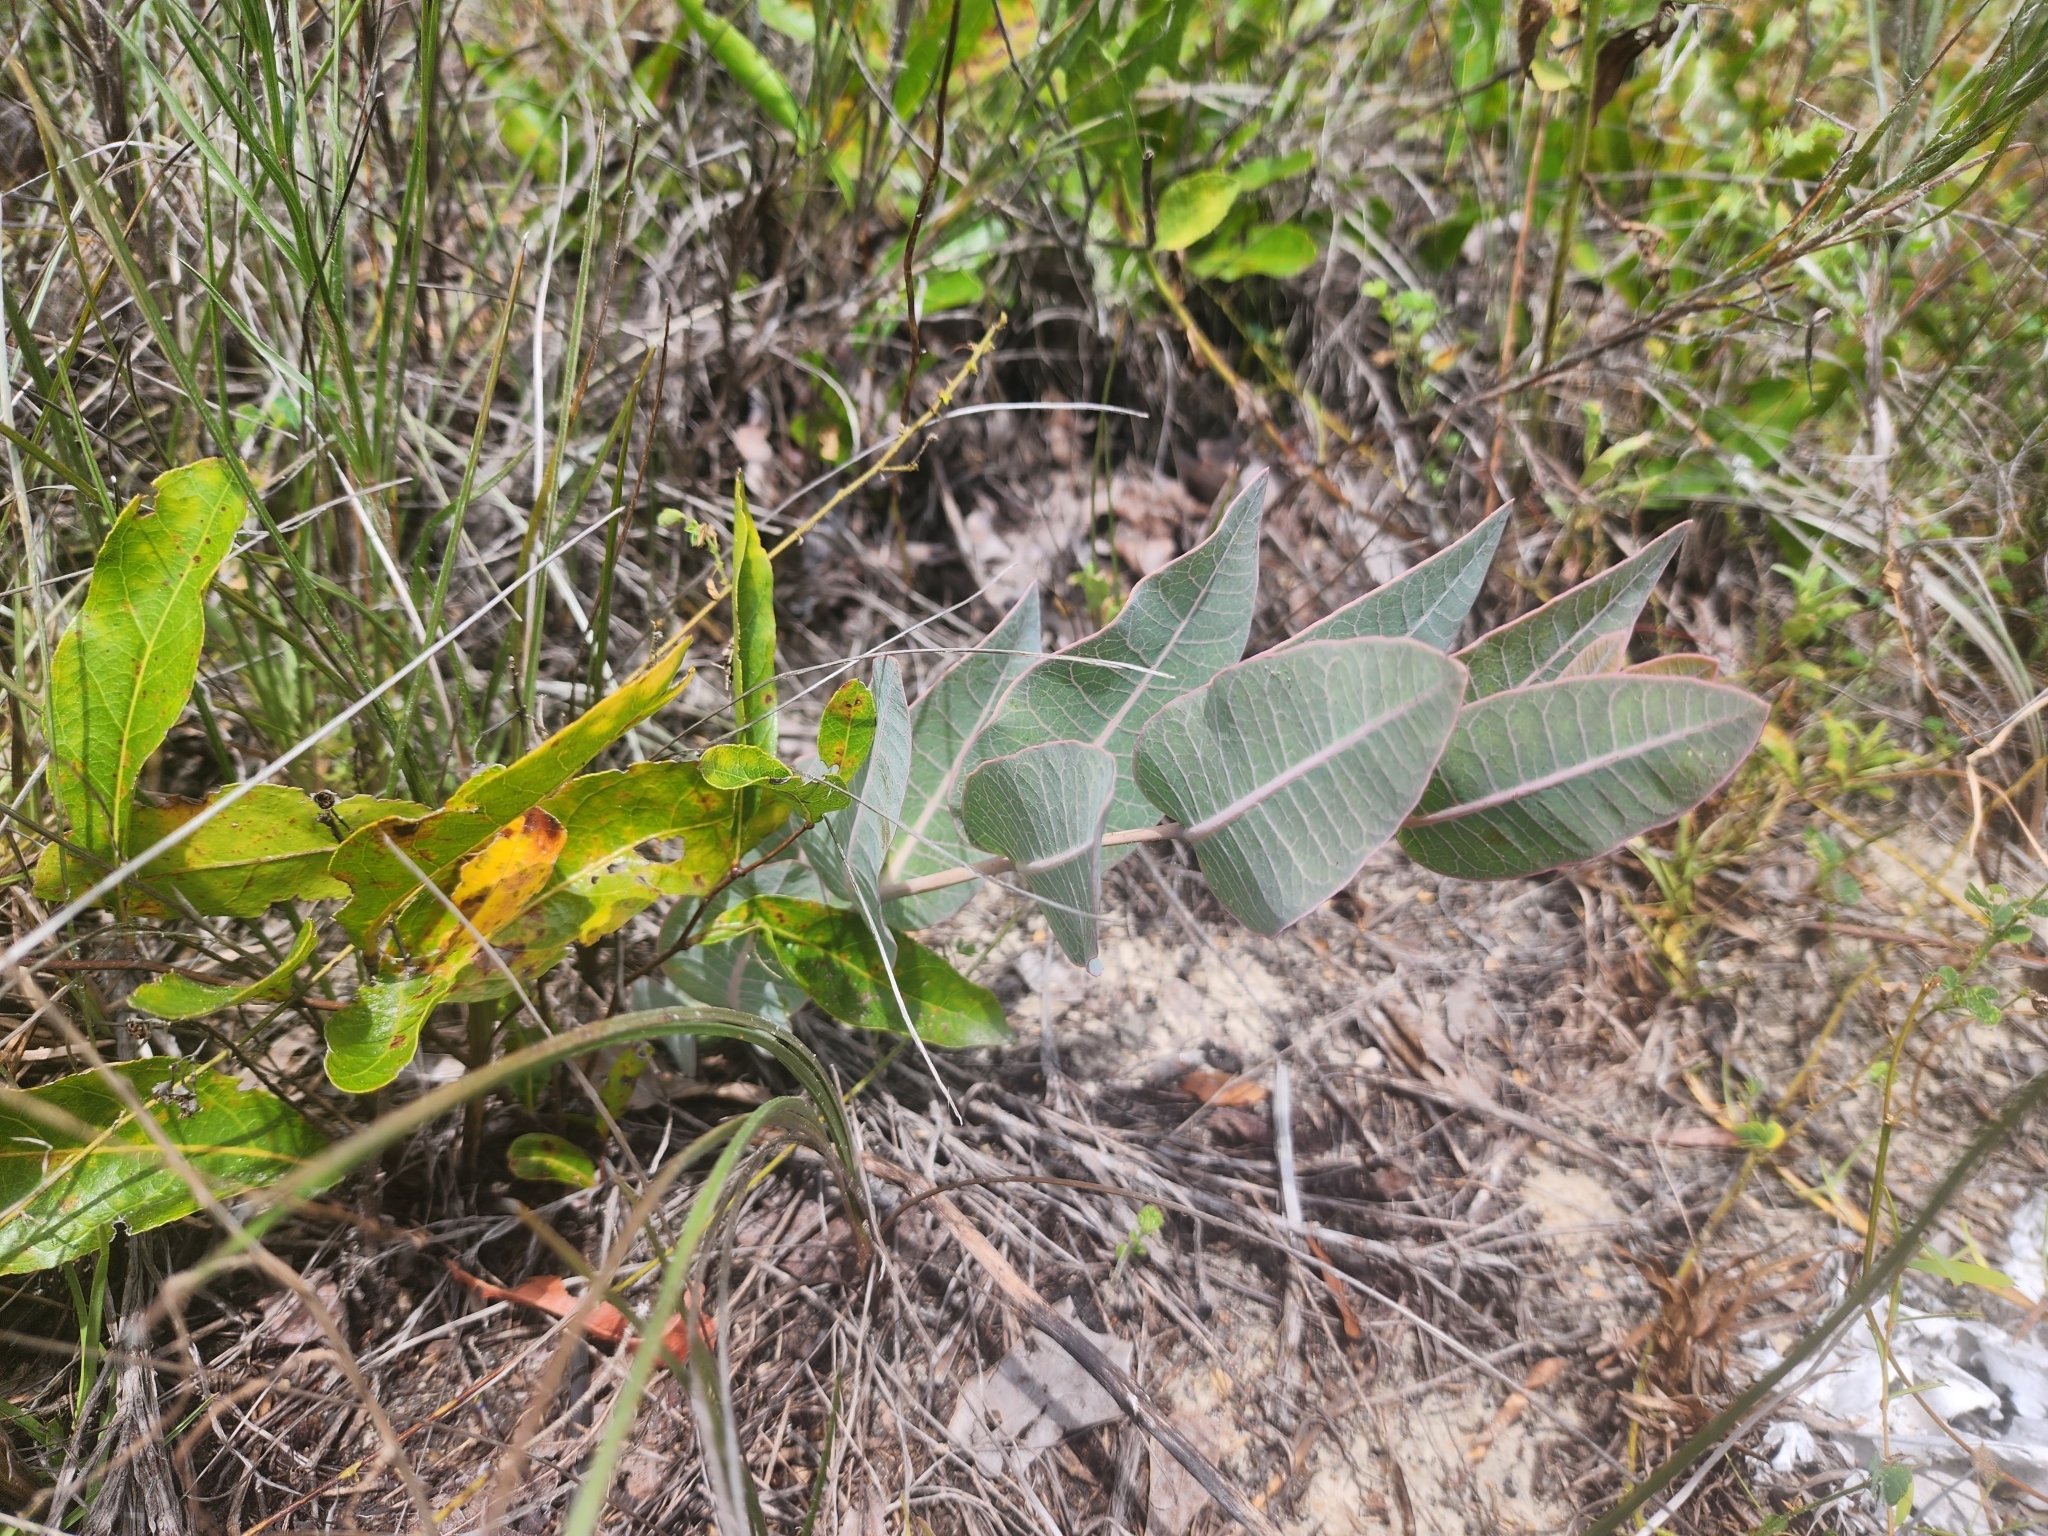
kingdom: Plantae
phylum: Tracheophyta
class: Magnoliopsida
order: Gentianales
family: Apocynaceae
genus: Asclepias
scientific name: Asclepias humistrata
